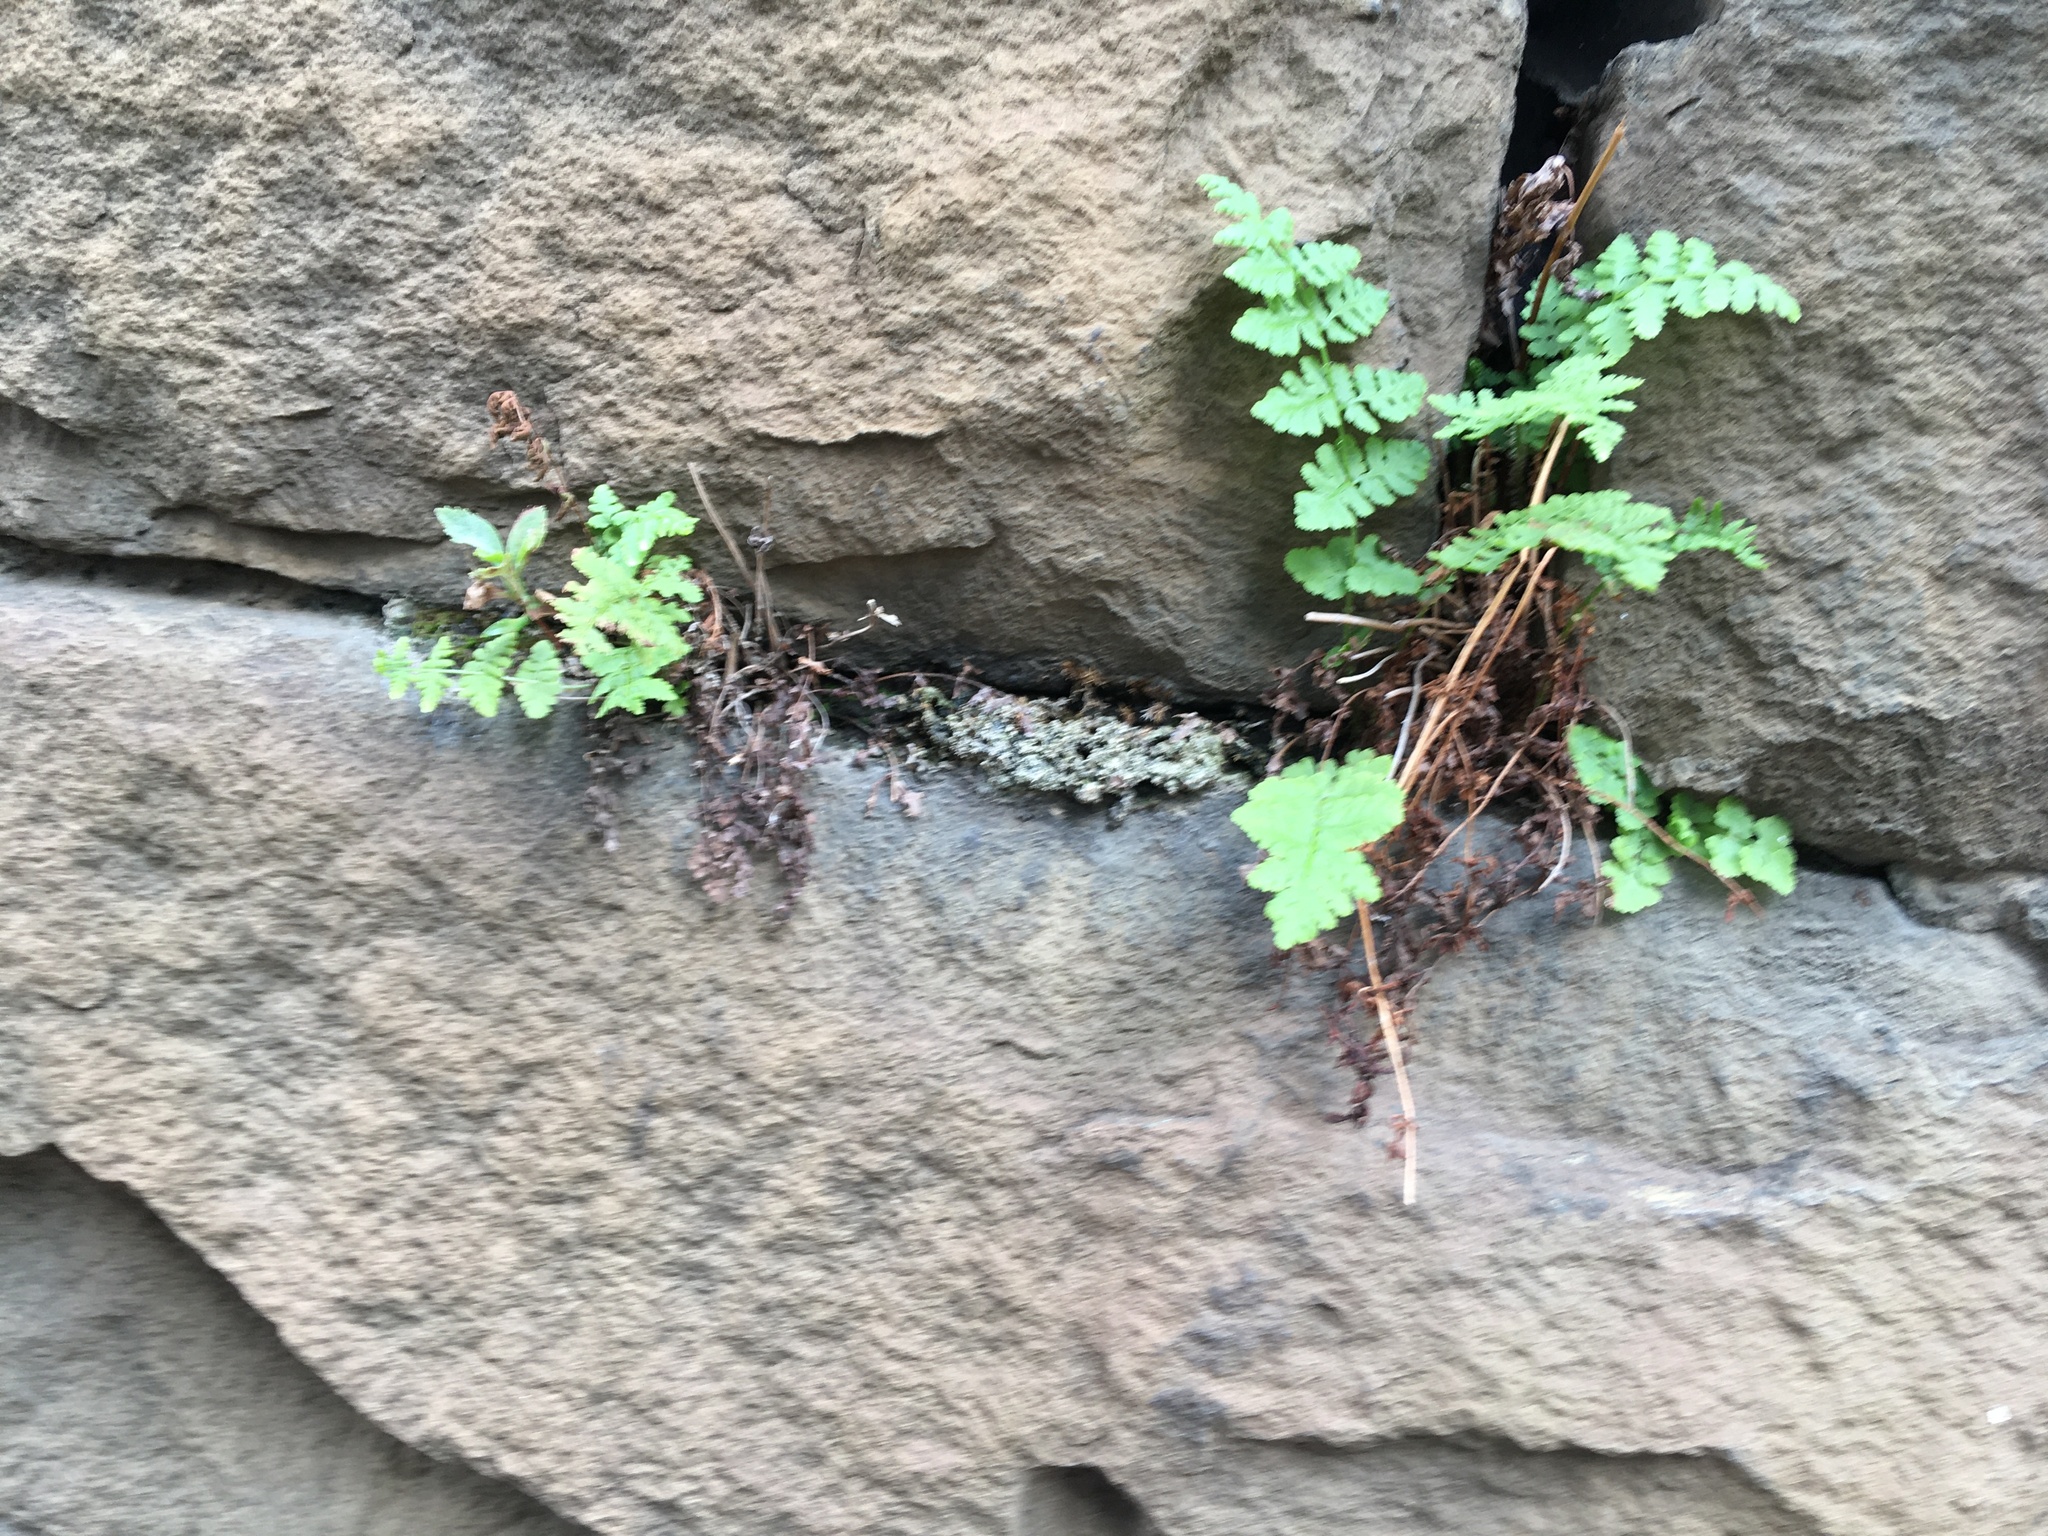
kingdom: Plantae
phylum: Tracheophyta
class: Polypodiopsida
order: Polypodiales
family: Woodsiaceae
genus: Physematium
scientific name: Physematium obtusum
